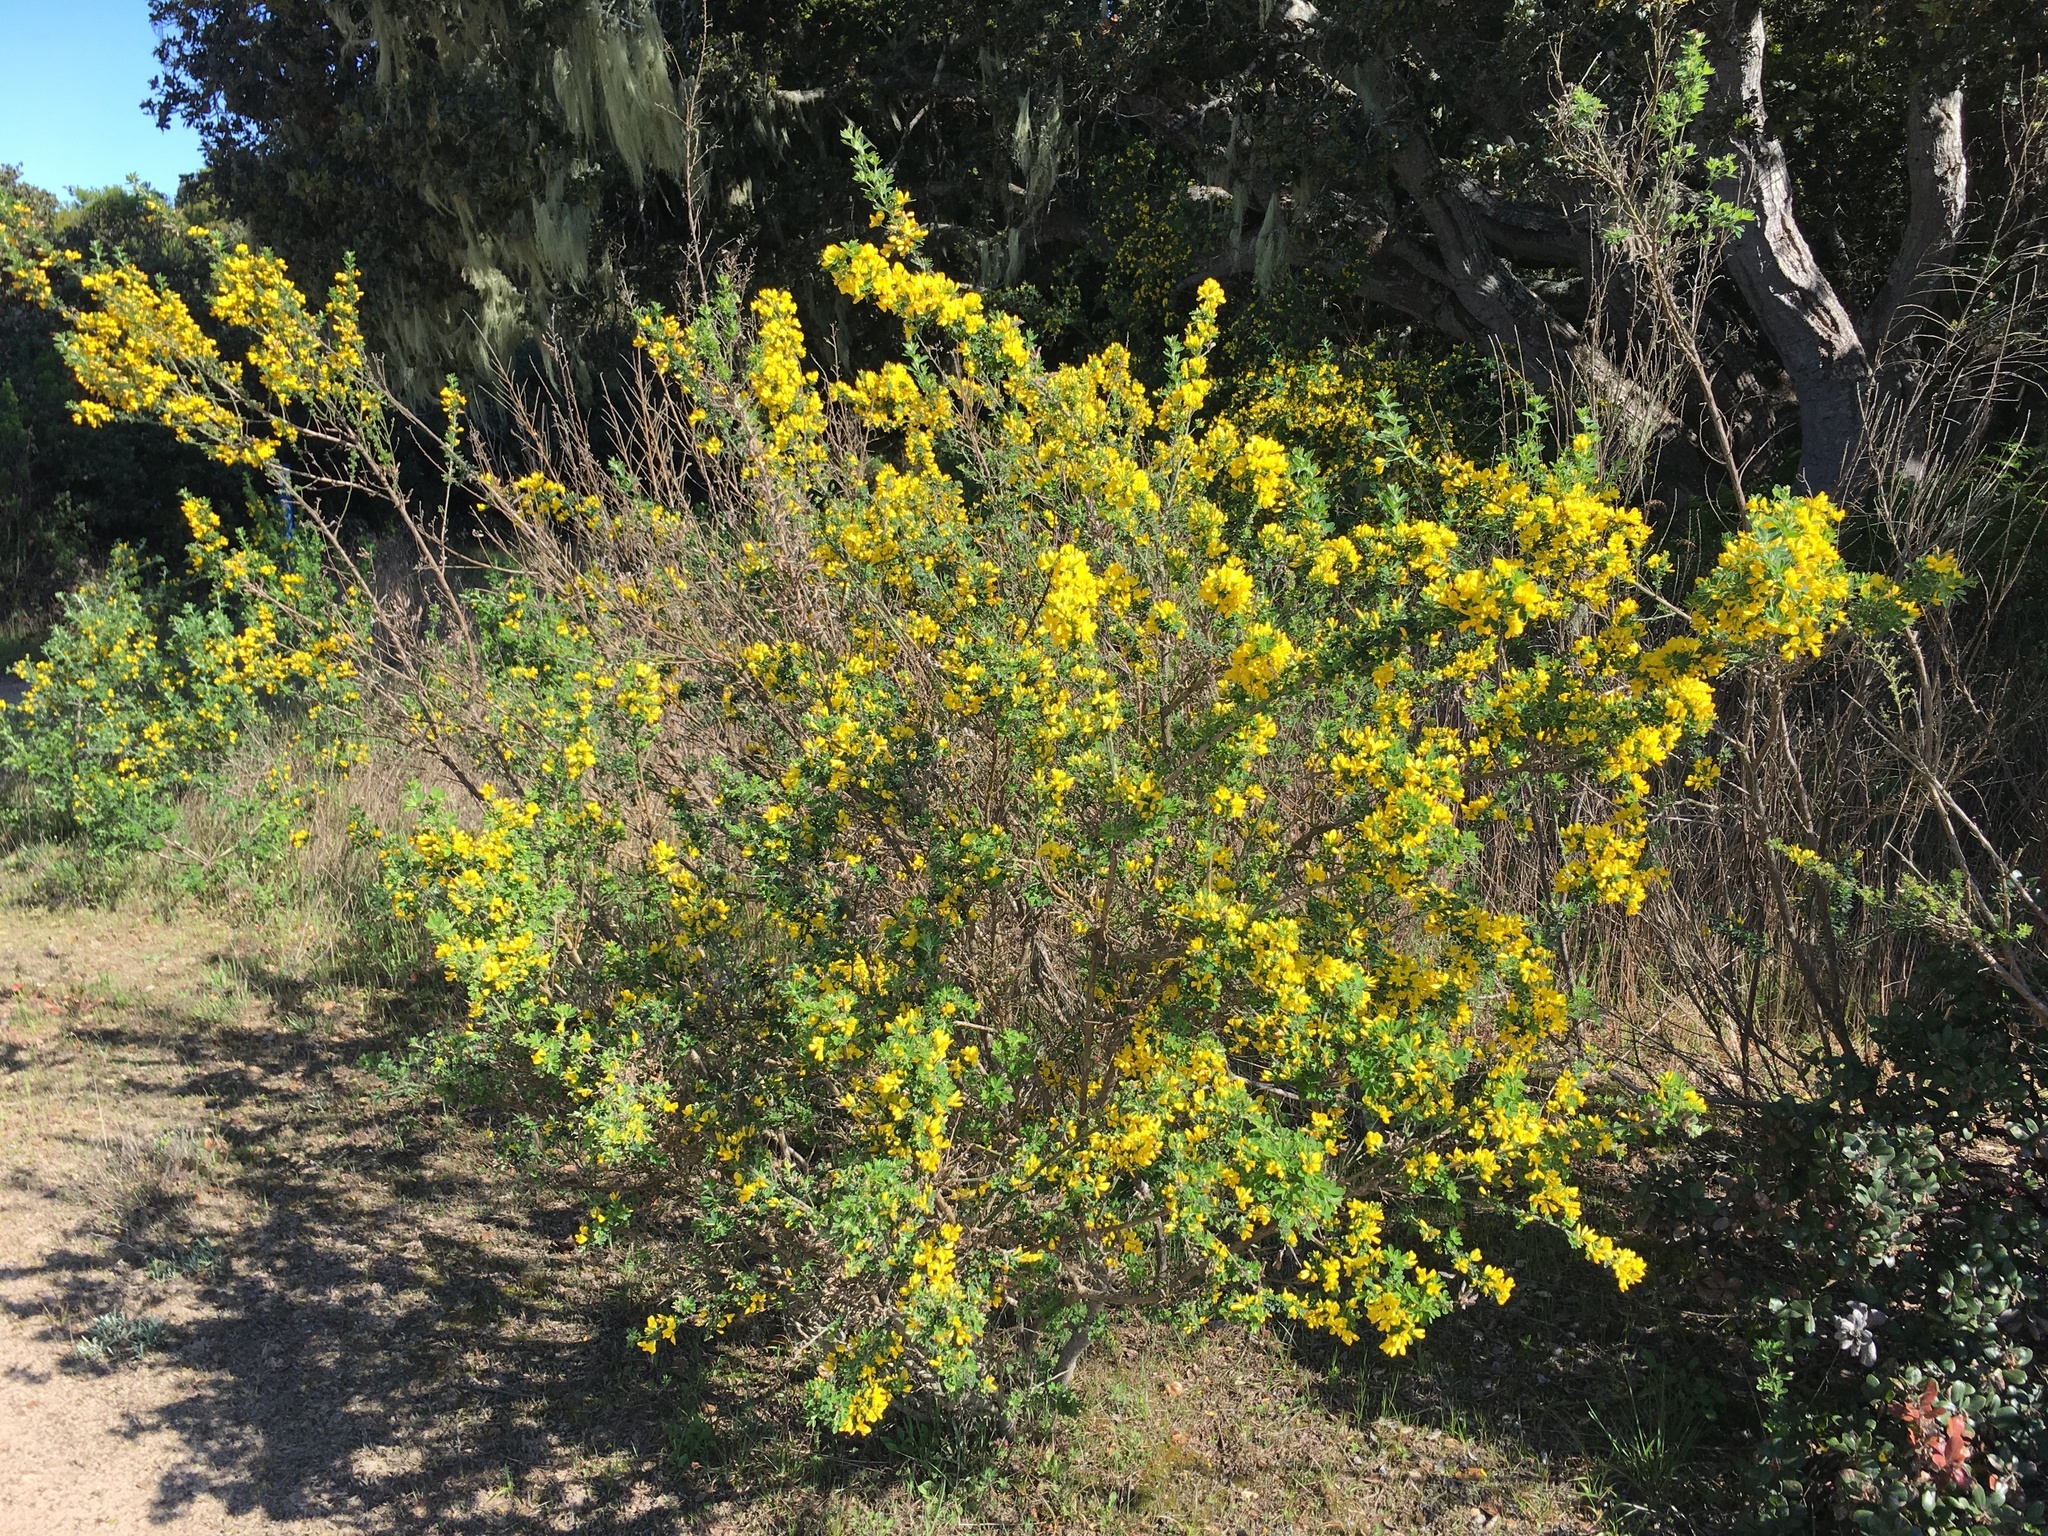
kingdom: Plantae
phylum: Tracheophyta
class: Magnoliopsida
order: Fabales
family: Fabaceae
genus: Genista
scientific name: Genista monspessulana
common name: Montpellier broom
